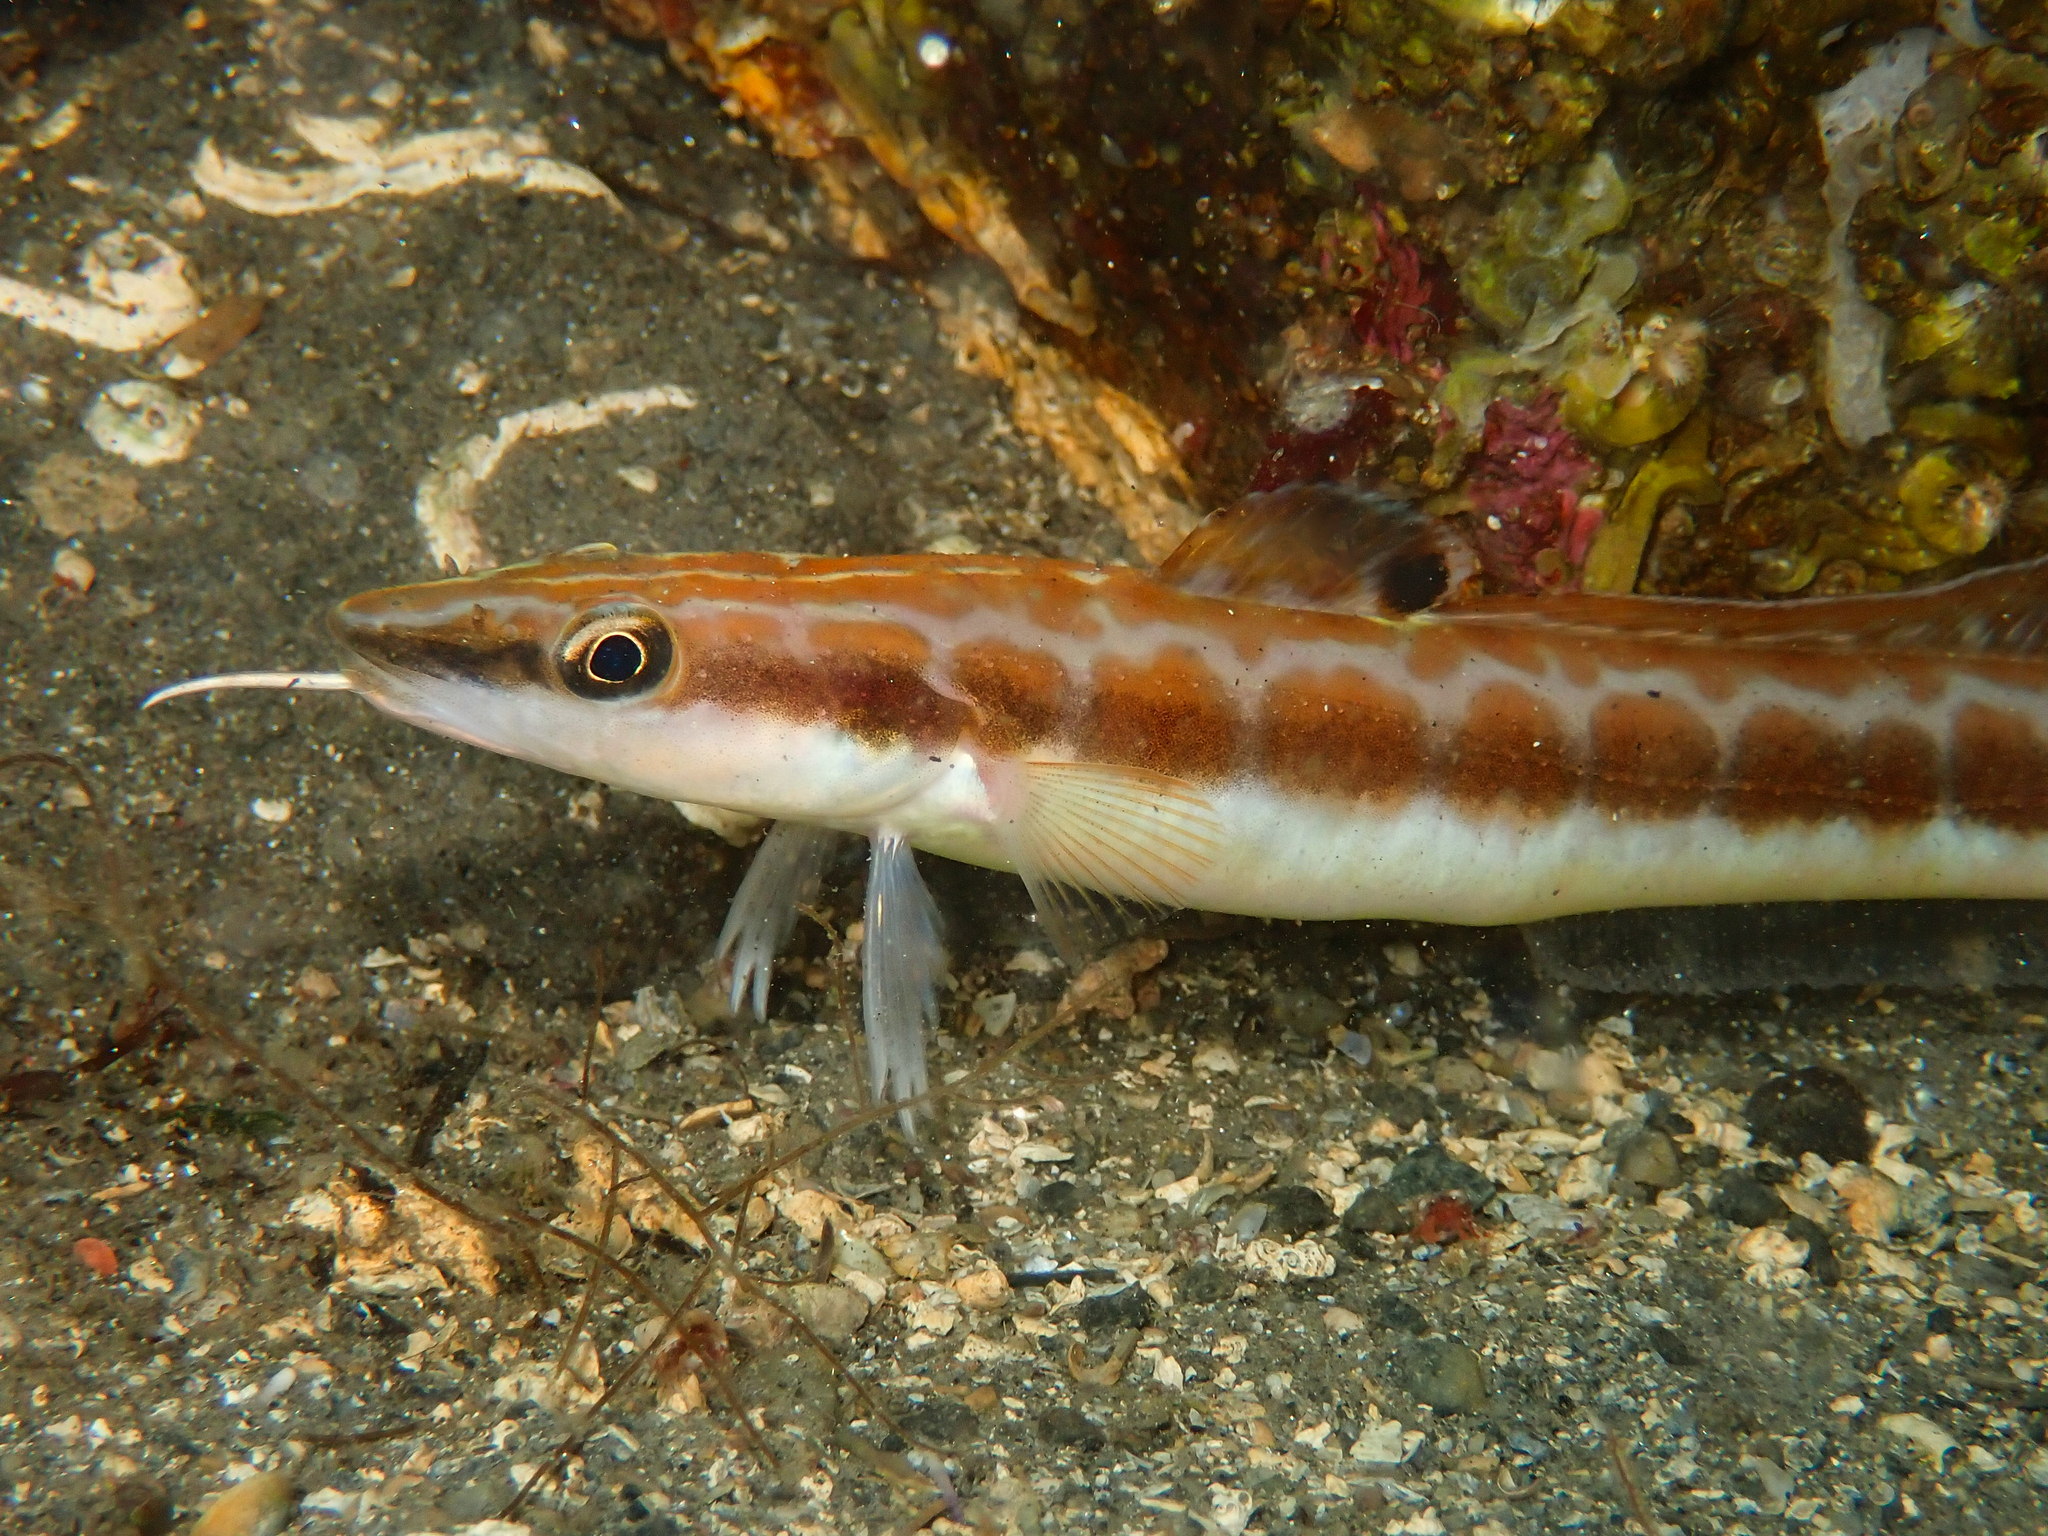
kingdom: Animalia
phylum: Chordata
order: Gadiformes
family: Lotidae
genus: Molva
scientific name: Molva molva
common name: Ling
